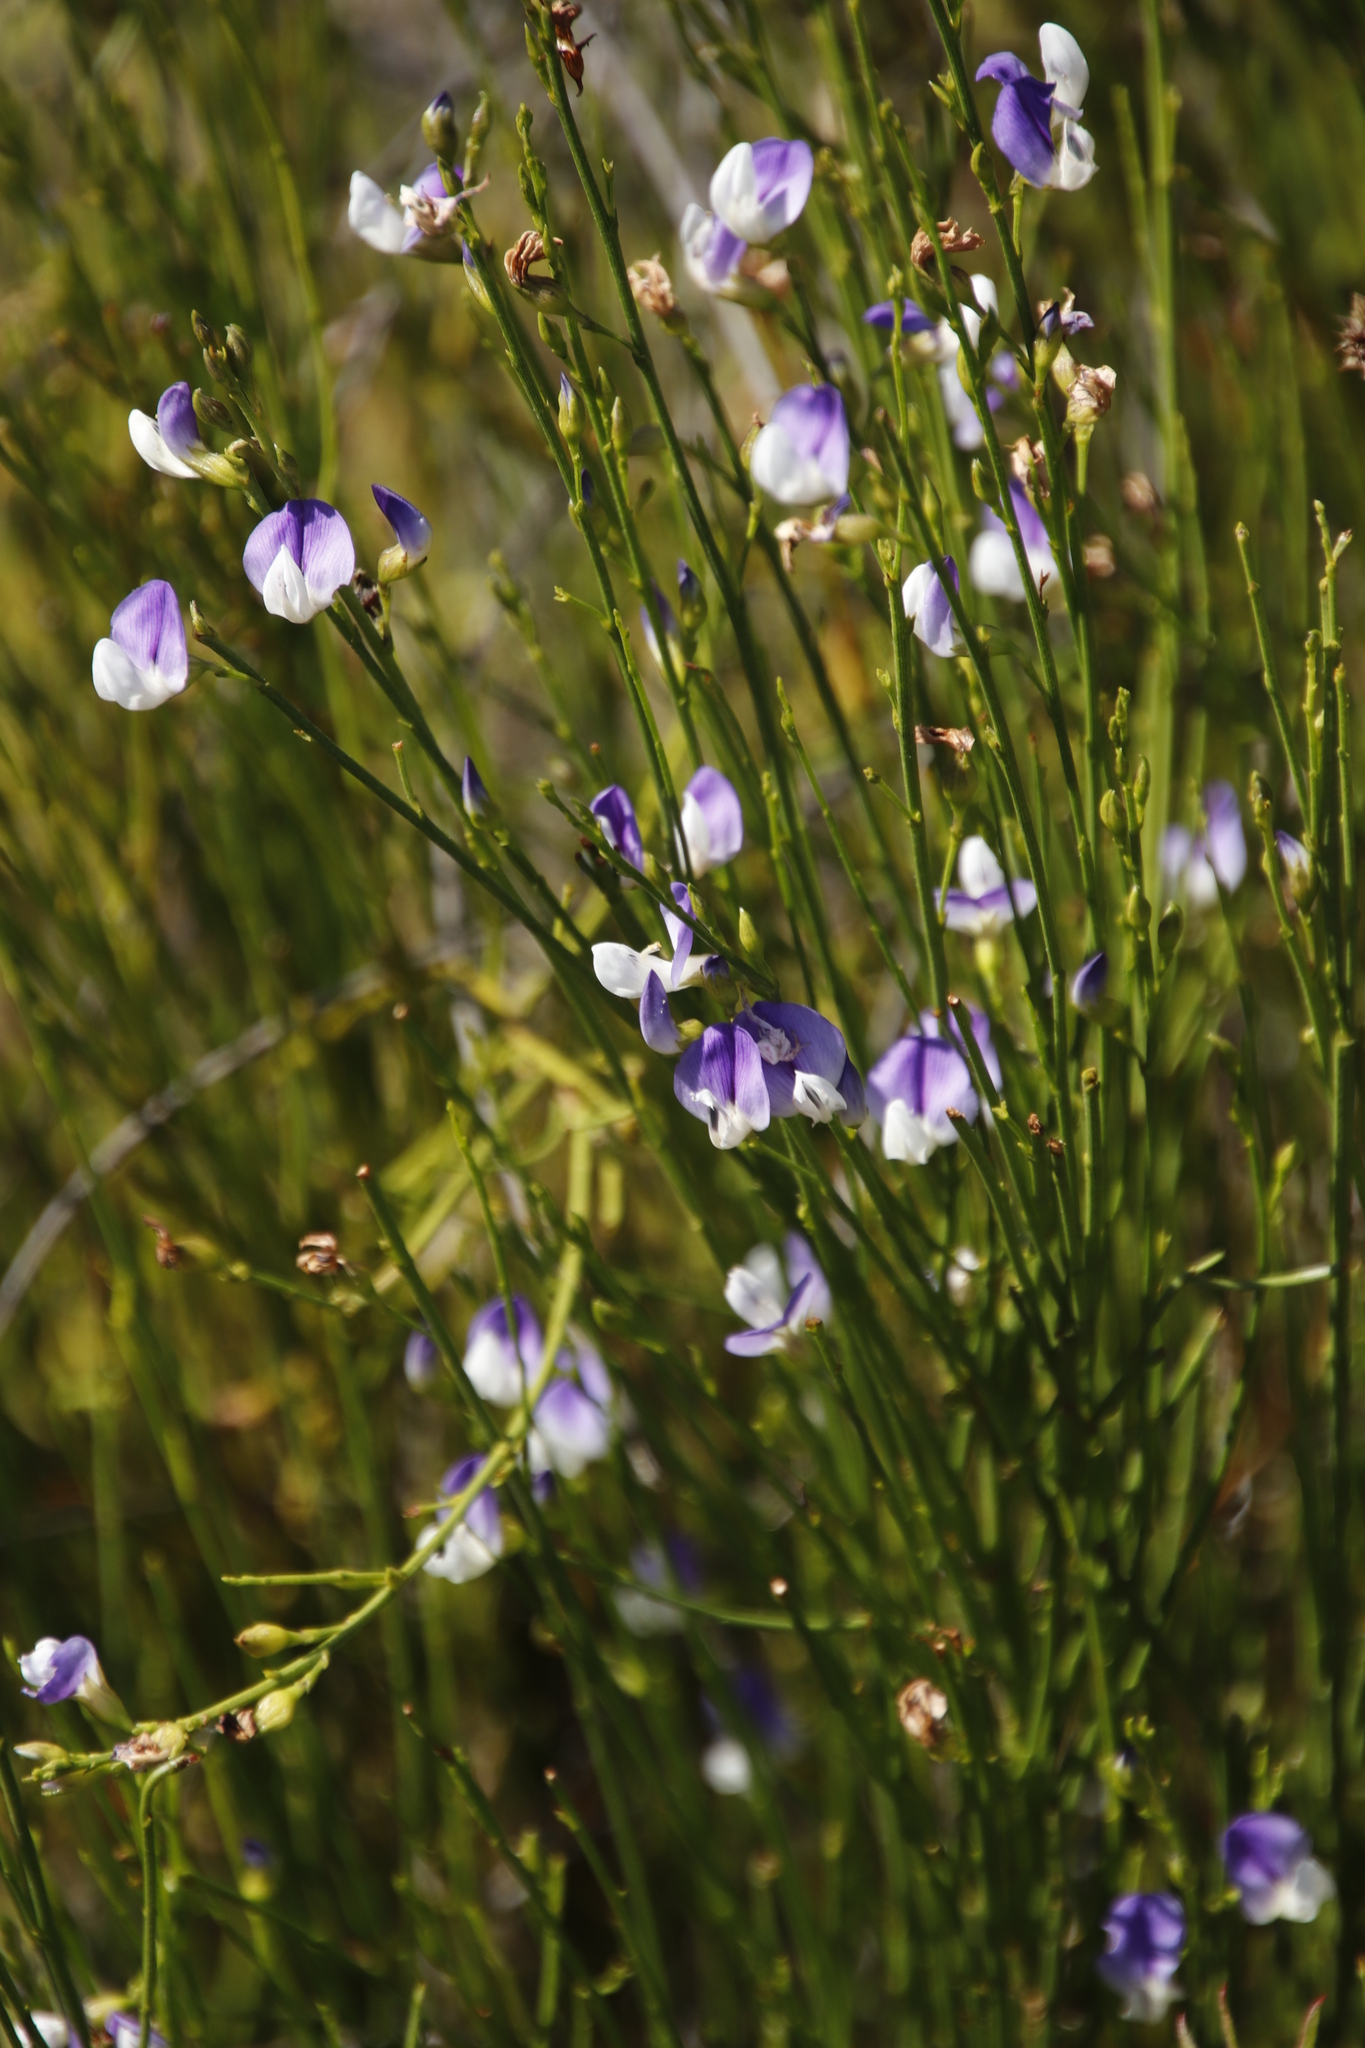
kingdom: Plantae
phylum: Tracheophyta
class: Magnoliopsida
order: Fabales
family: Fabaceae
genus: Psoralea
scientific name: Psoralea usitata
